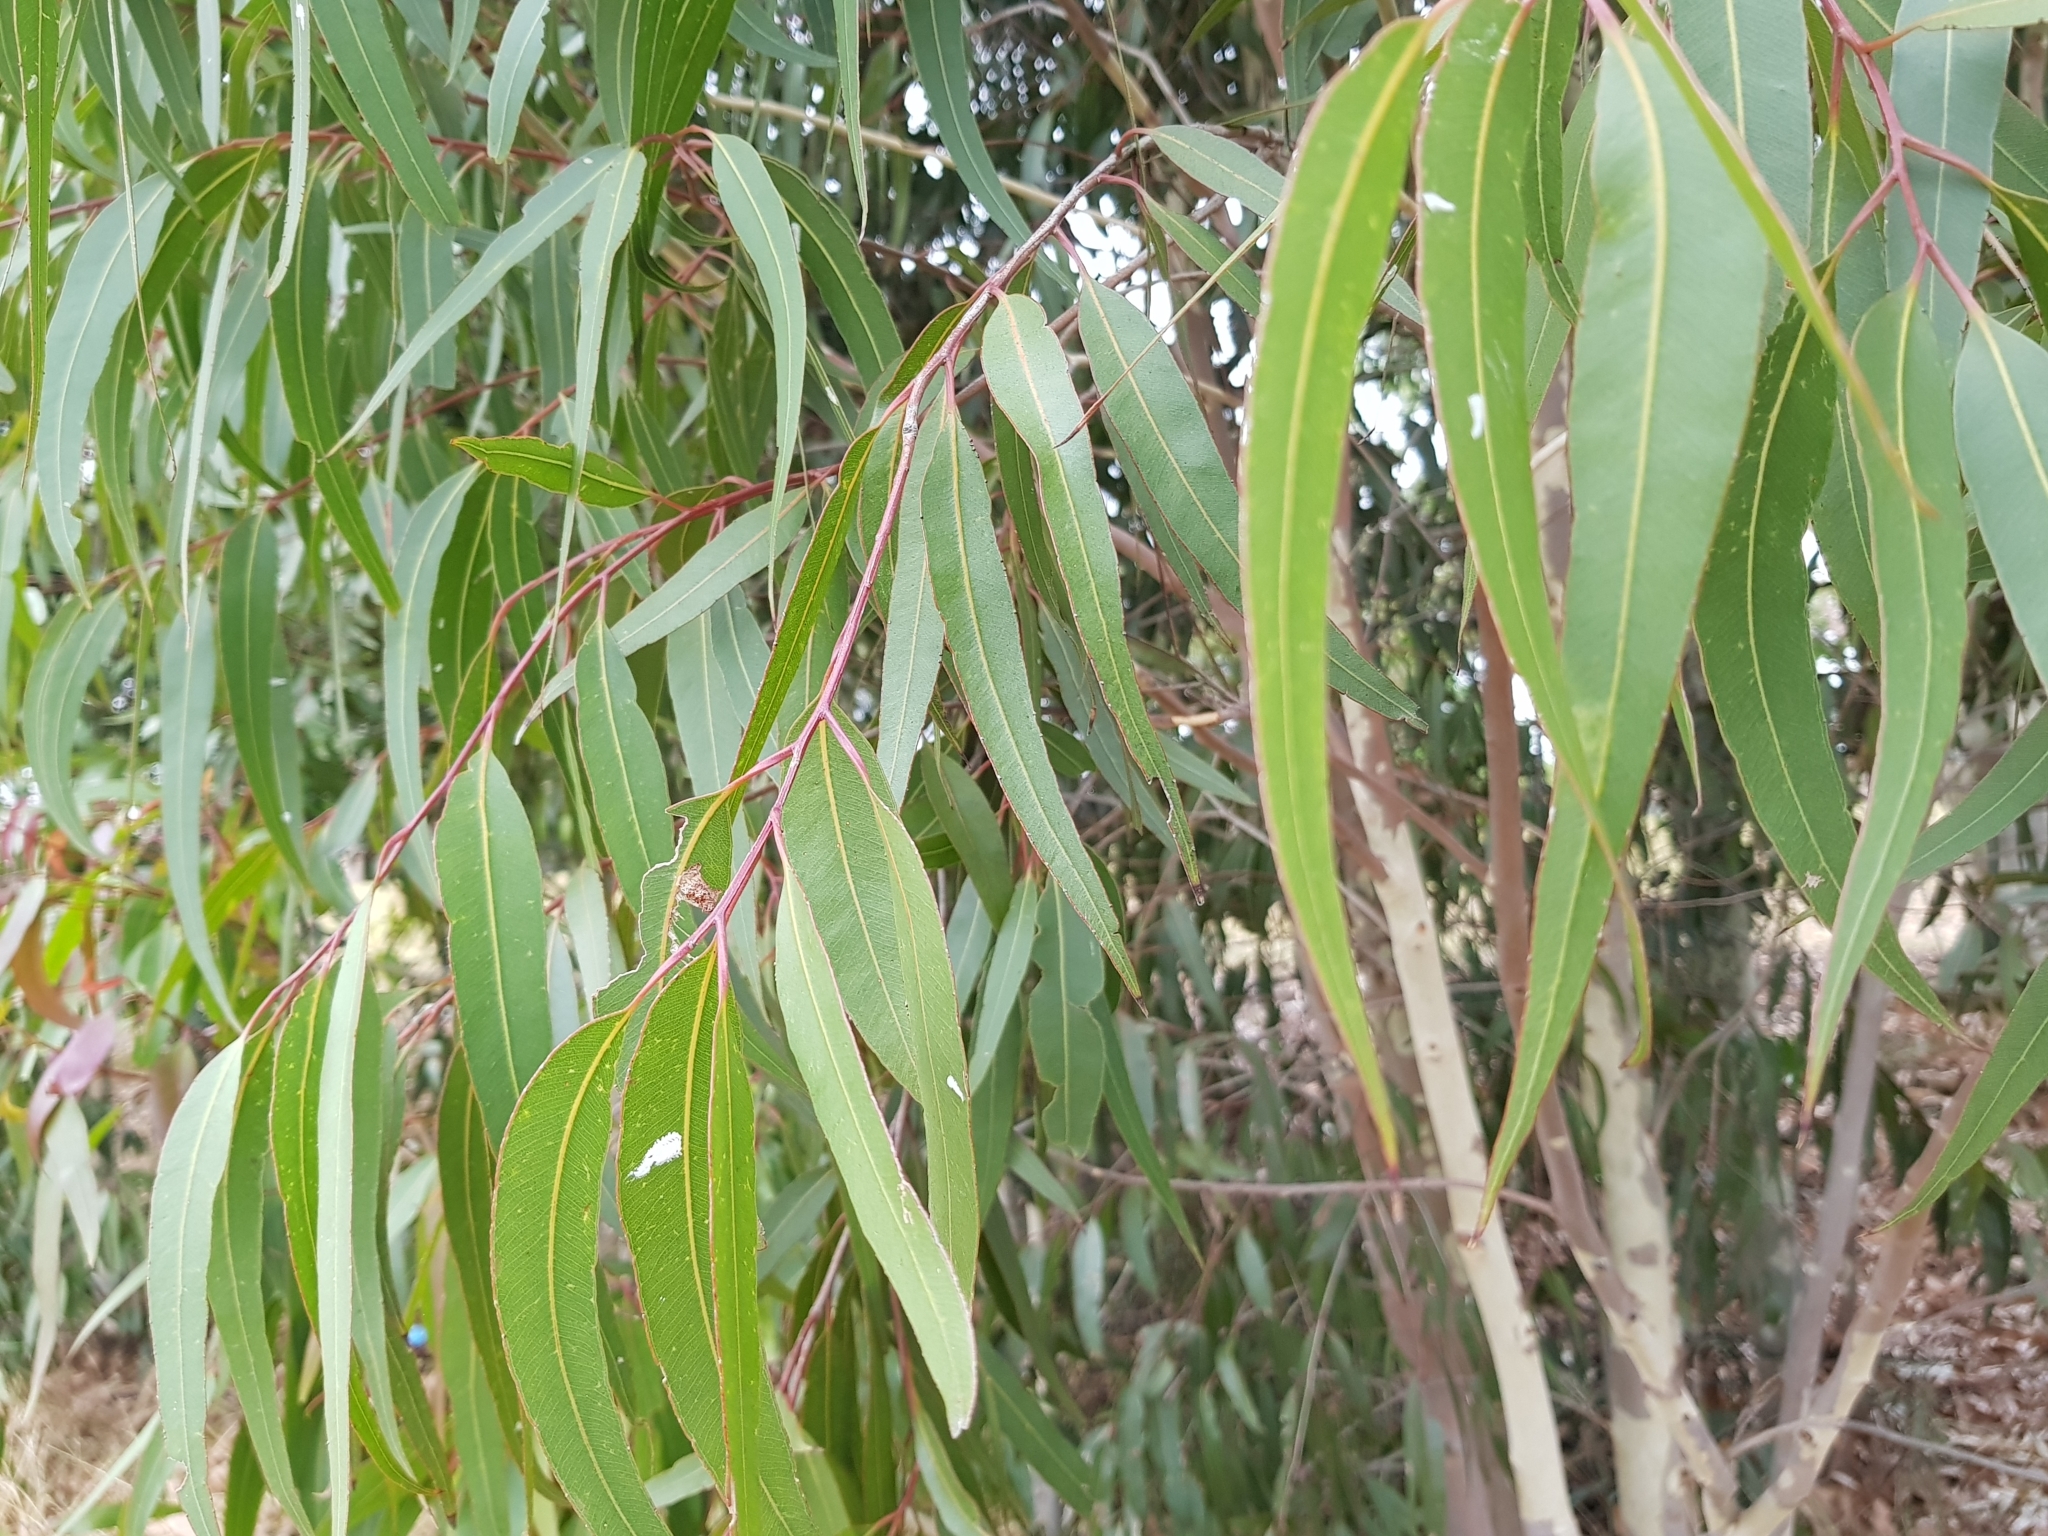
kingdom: Animalia
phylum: Arthropoda
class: Insecta
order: Hemiptera
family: Aphalaridae
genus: Eucalyptolyma
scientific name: Eucalyptolyma maideni
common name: Spotted gum lerp psyllid
